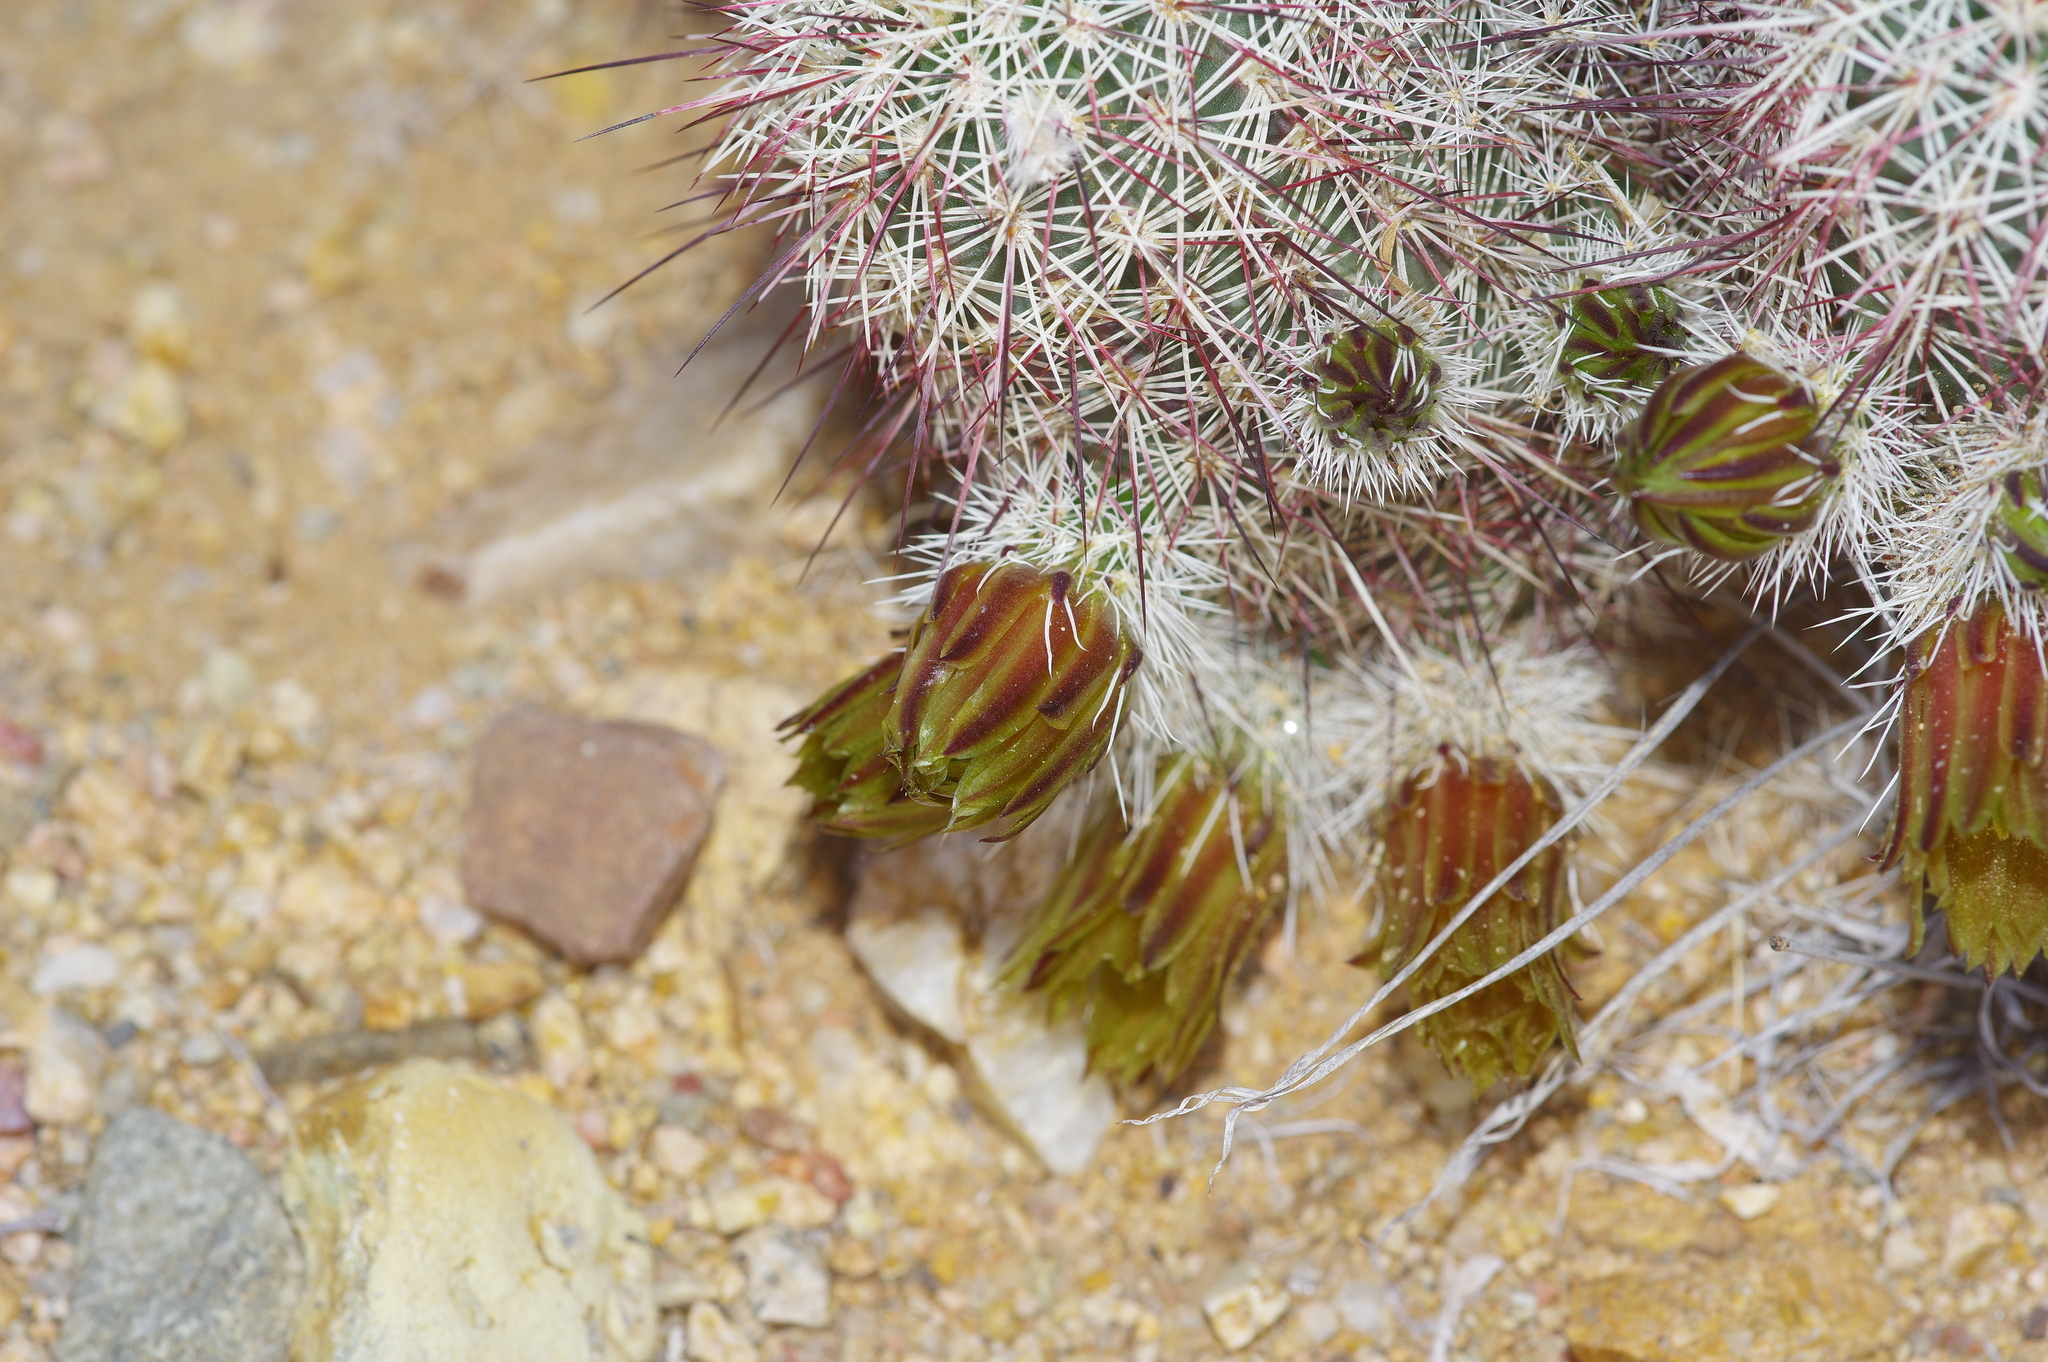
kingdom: Plantae
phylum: Tracheophyta
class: Magnoliopsida
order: Caryophyllales
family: Cactaceae
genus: Echinocereus
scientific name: Echinocereus viridiflorus
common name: Nylon hedgehog cactus
